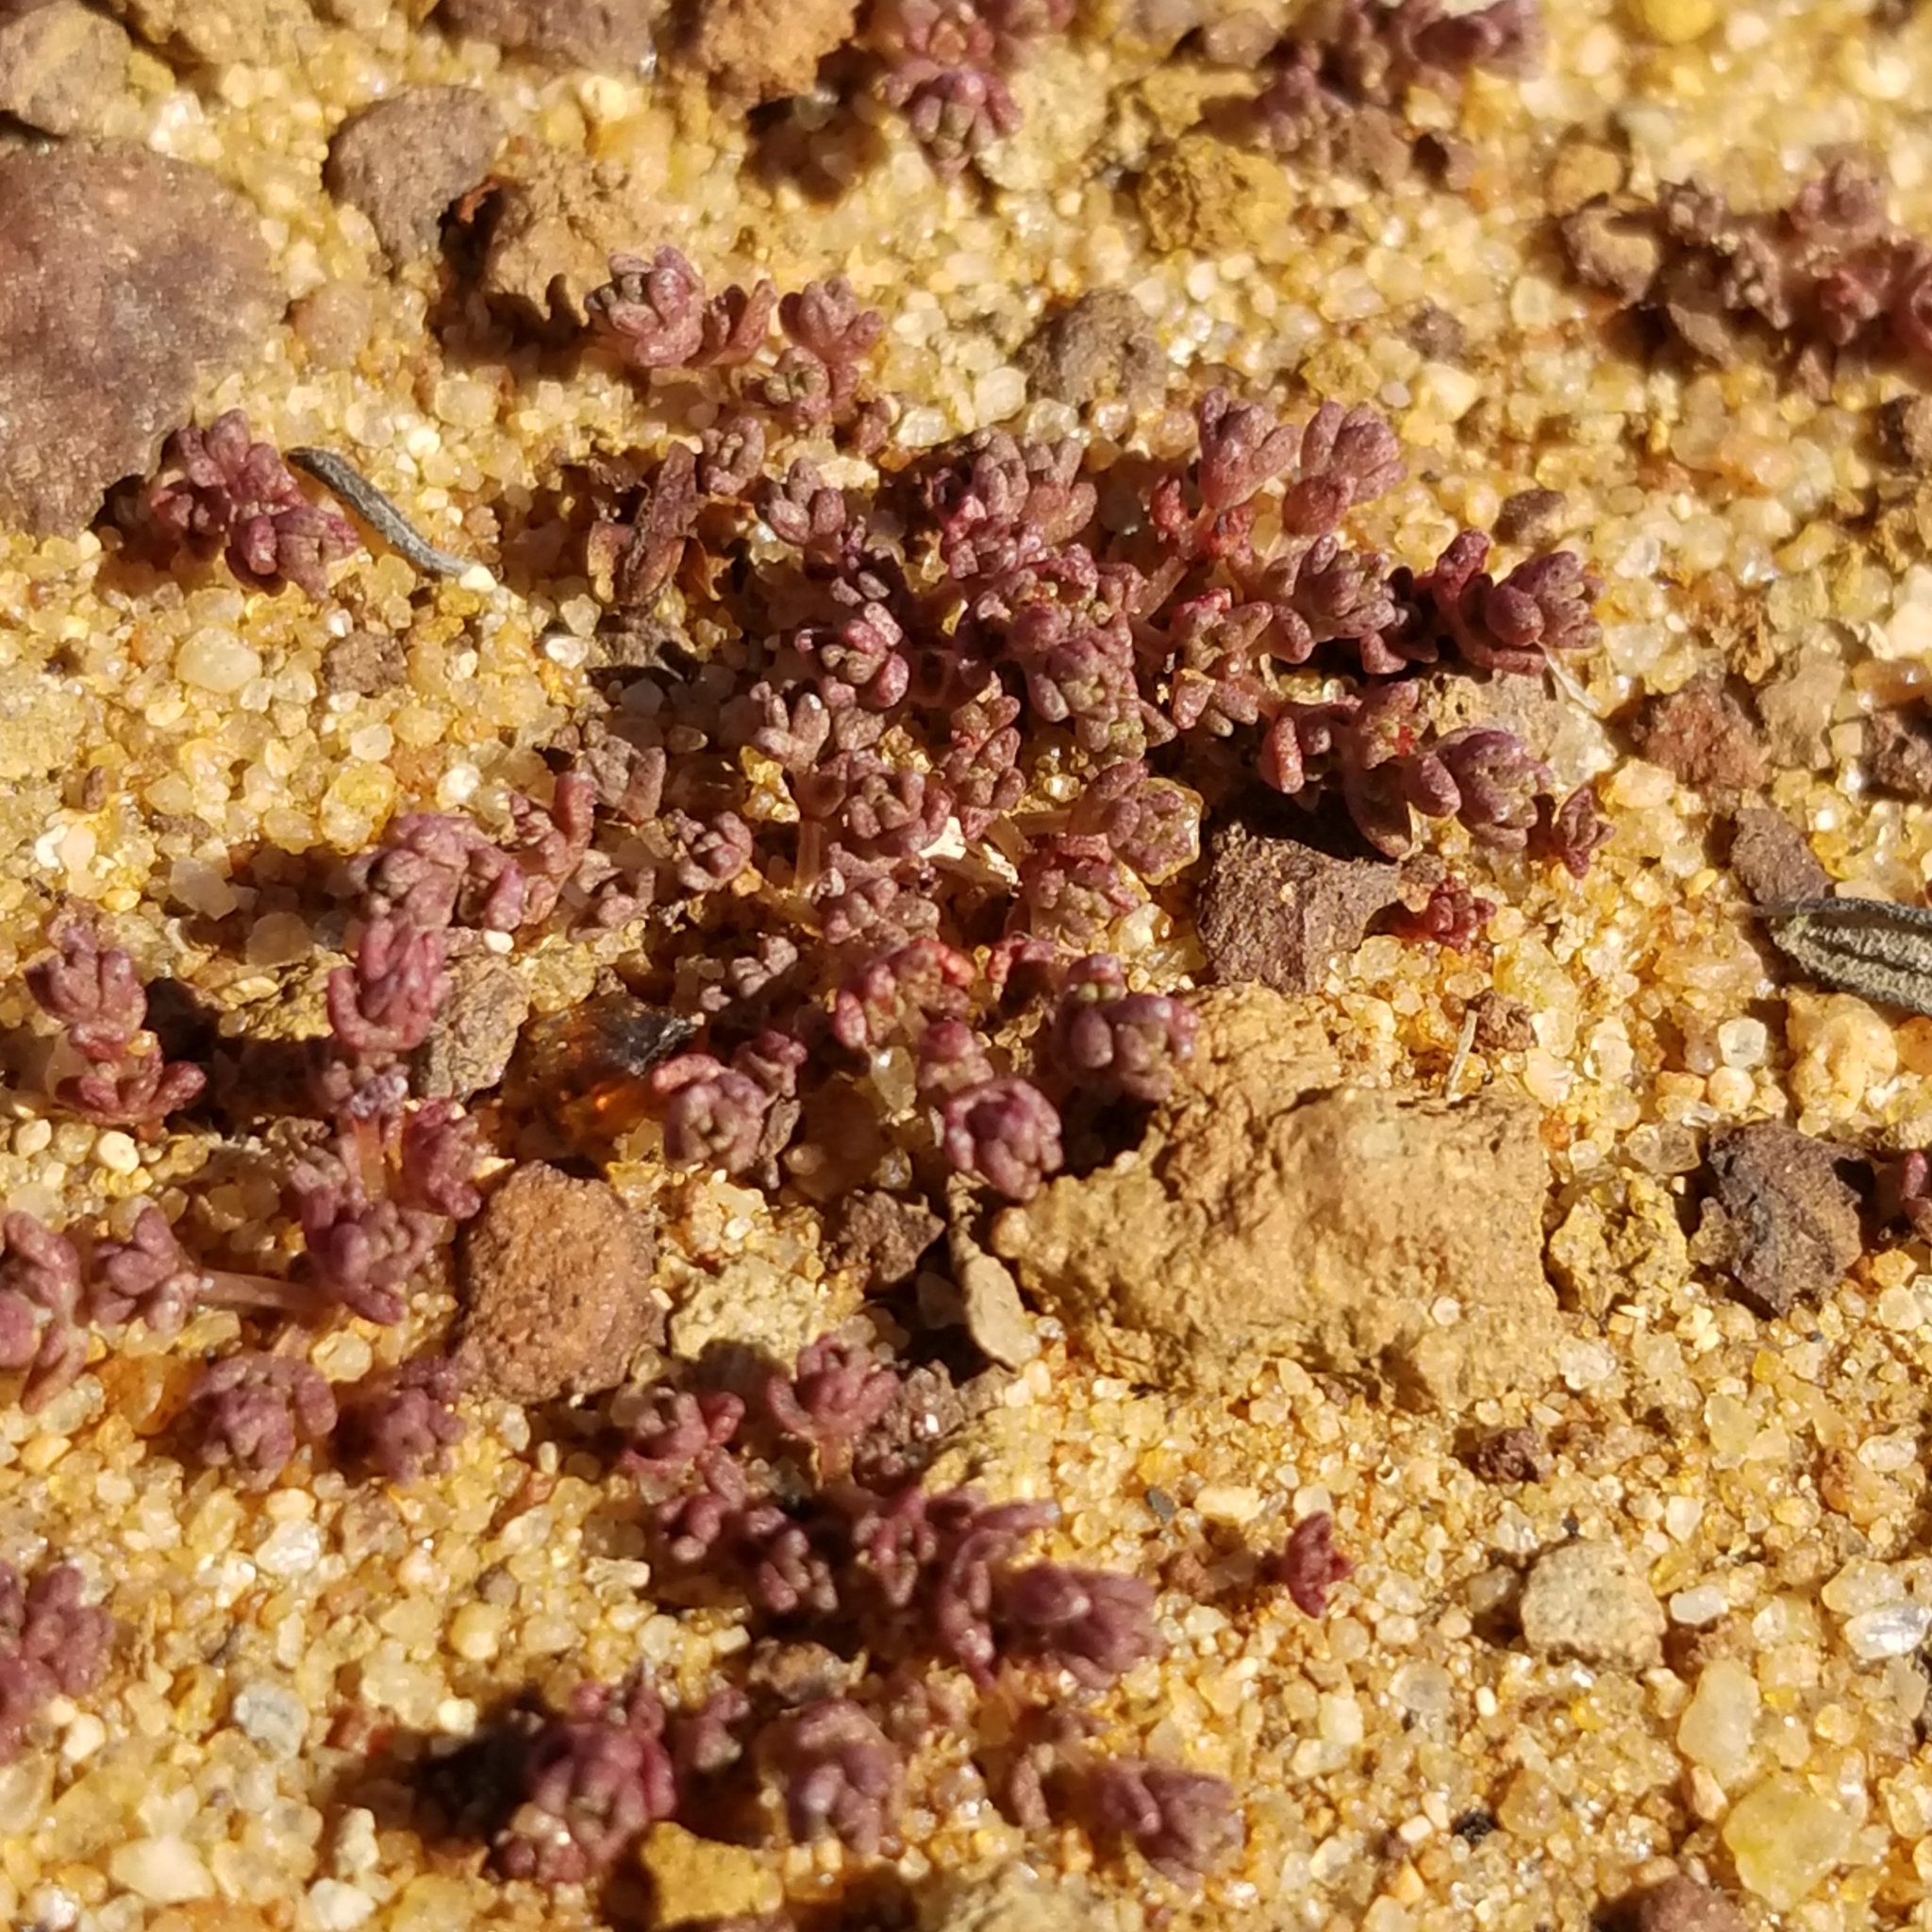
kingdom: Plantae
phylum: Tracheophyta
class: Magnoliopsida
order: Saxifragales
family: Crassulaceae
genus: Crassula
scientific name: Crassula connata
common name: Erect pygmyweed
